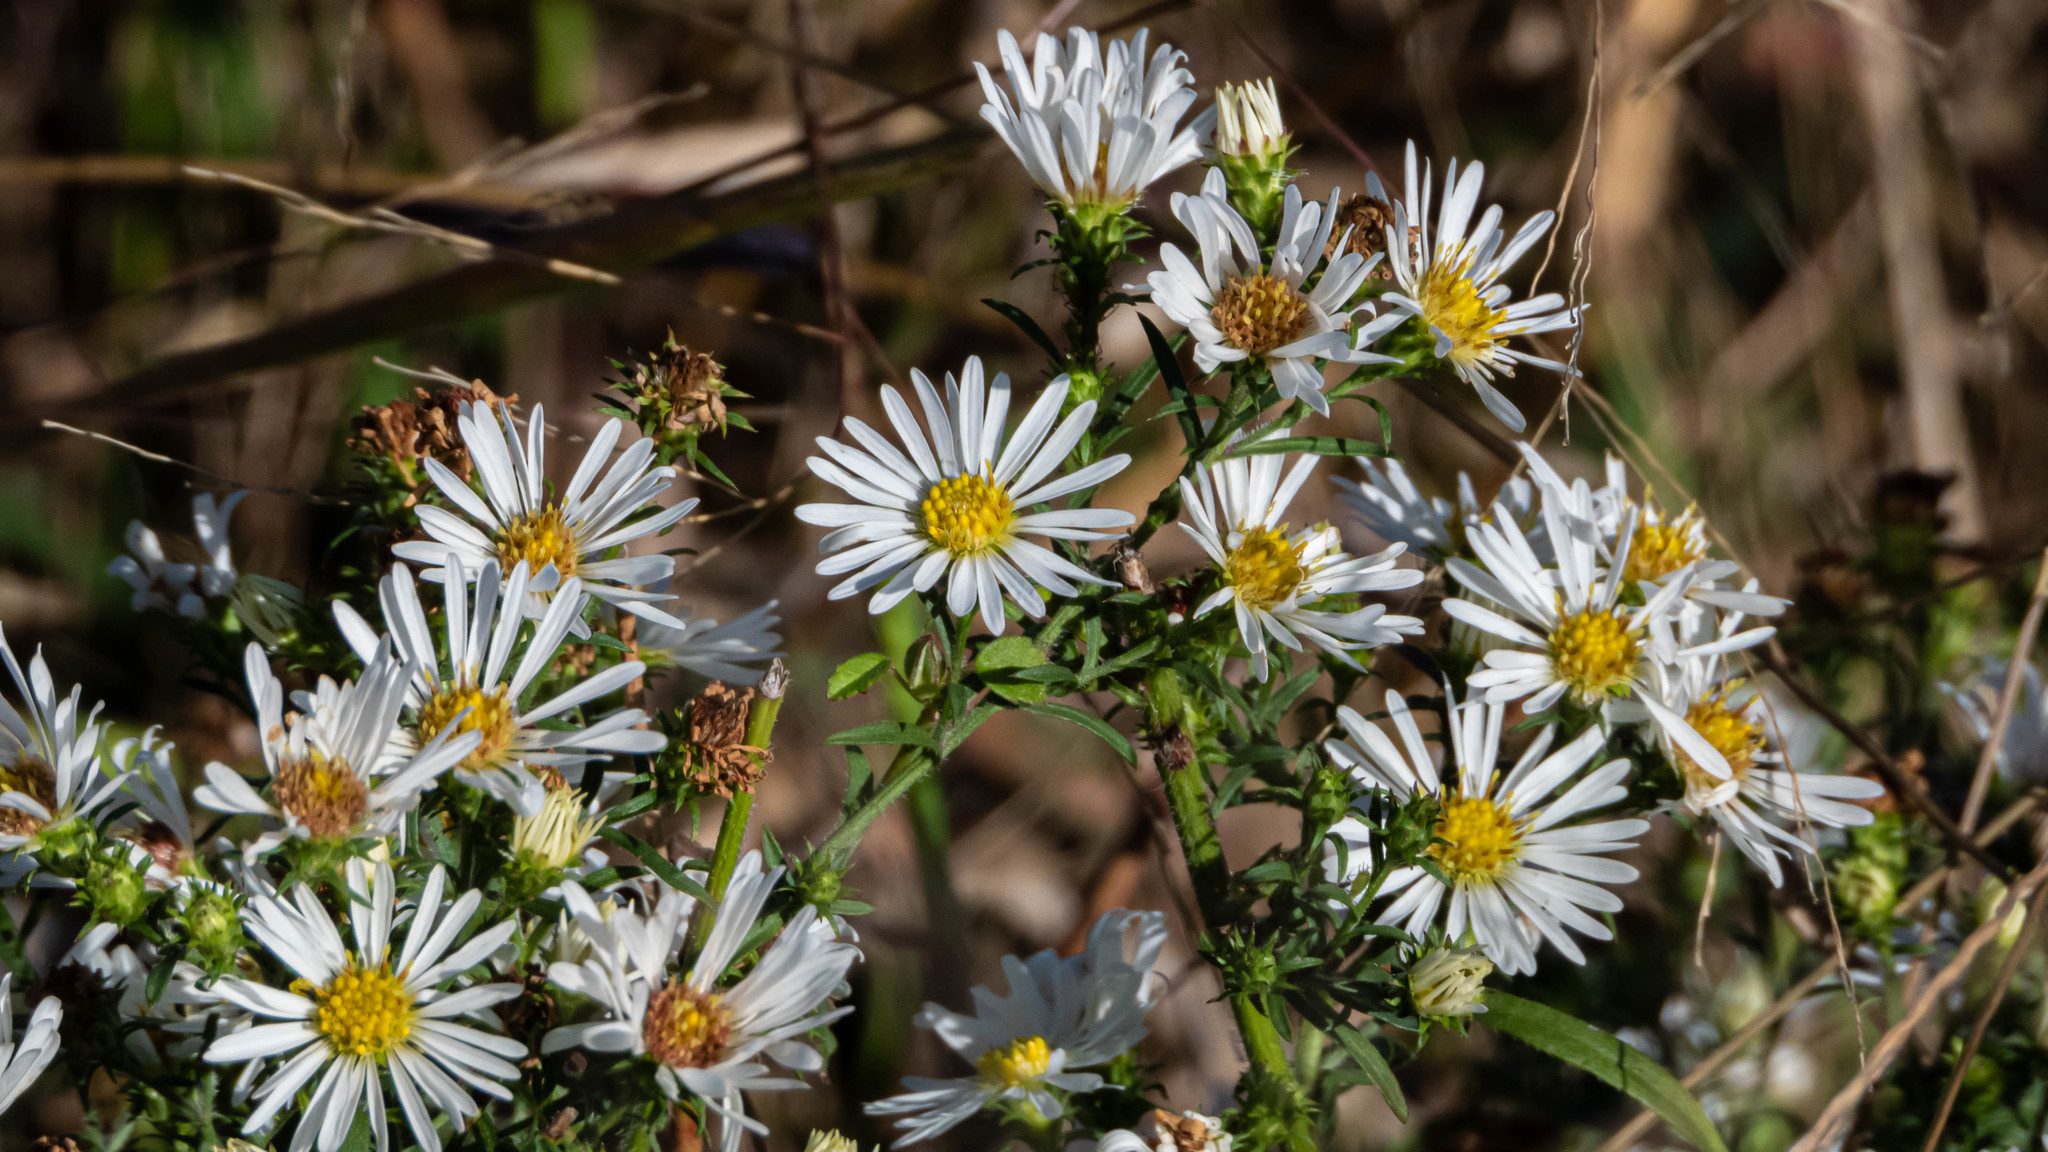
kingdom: Plantae
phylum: Tracheophyta
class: Magnoliopsida
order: Asterales
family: Asteraceae
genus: Symphyotrichum
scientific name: Symphyotrichum pilosum
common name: Awl aster
